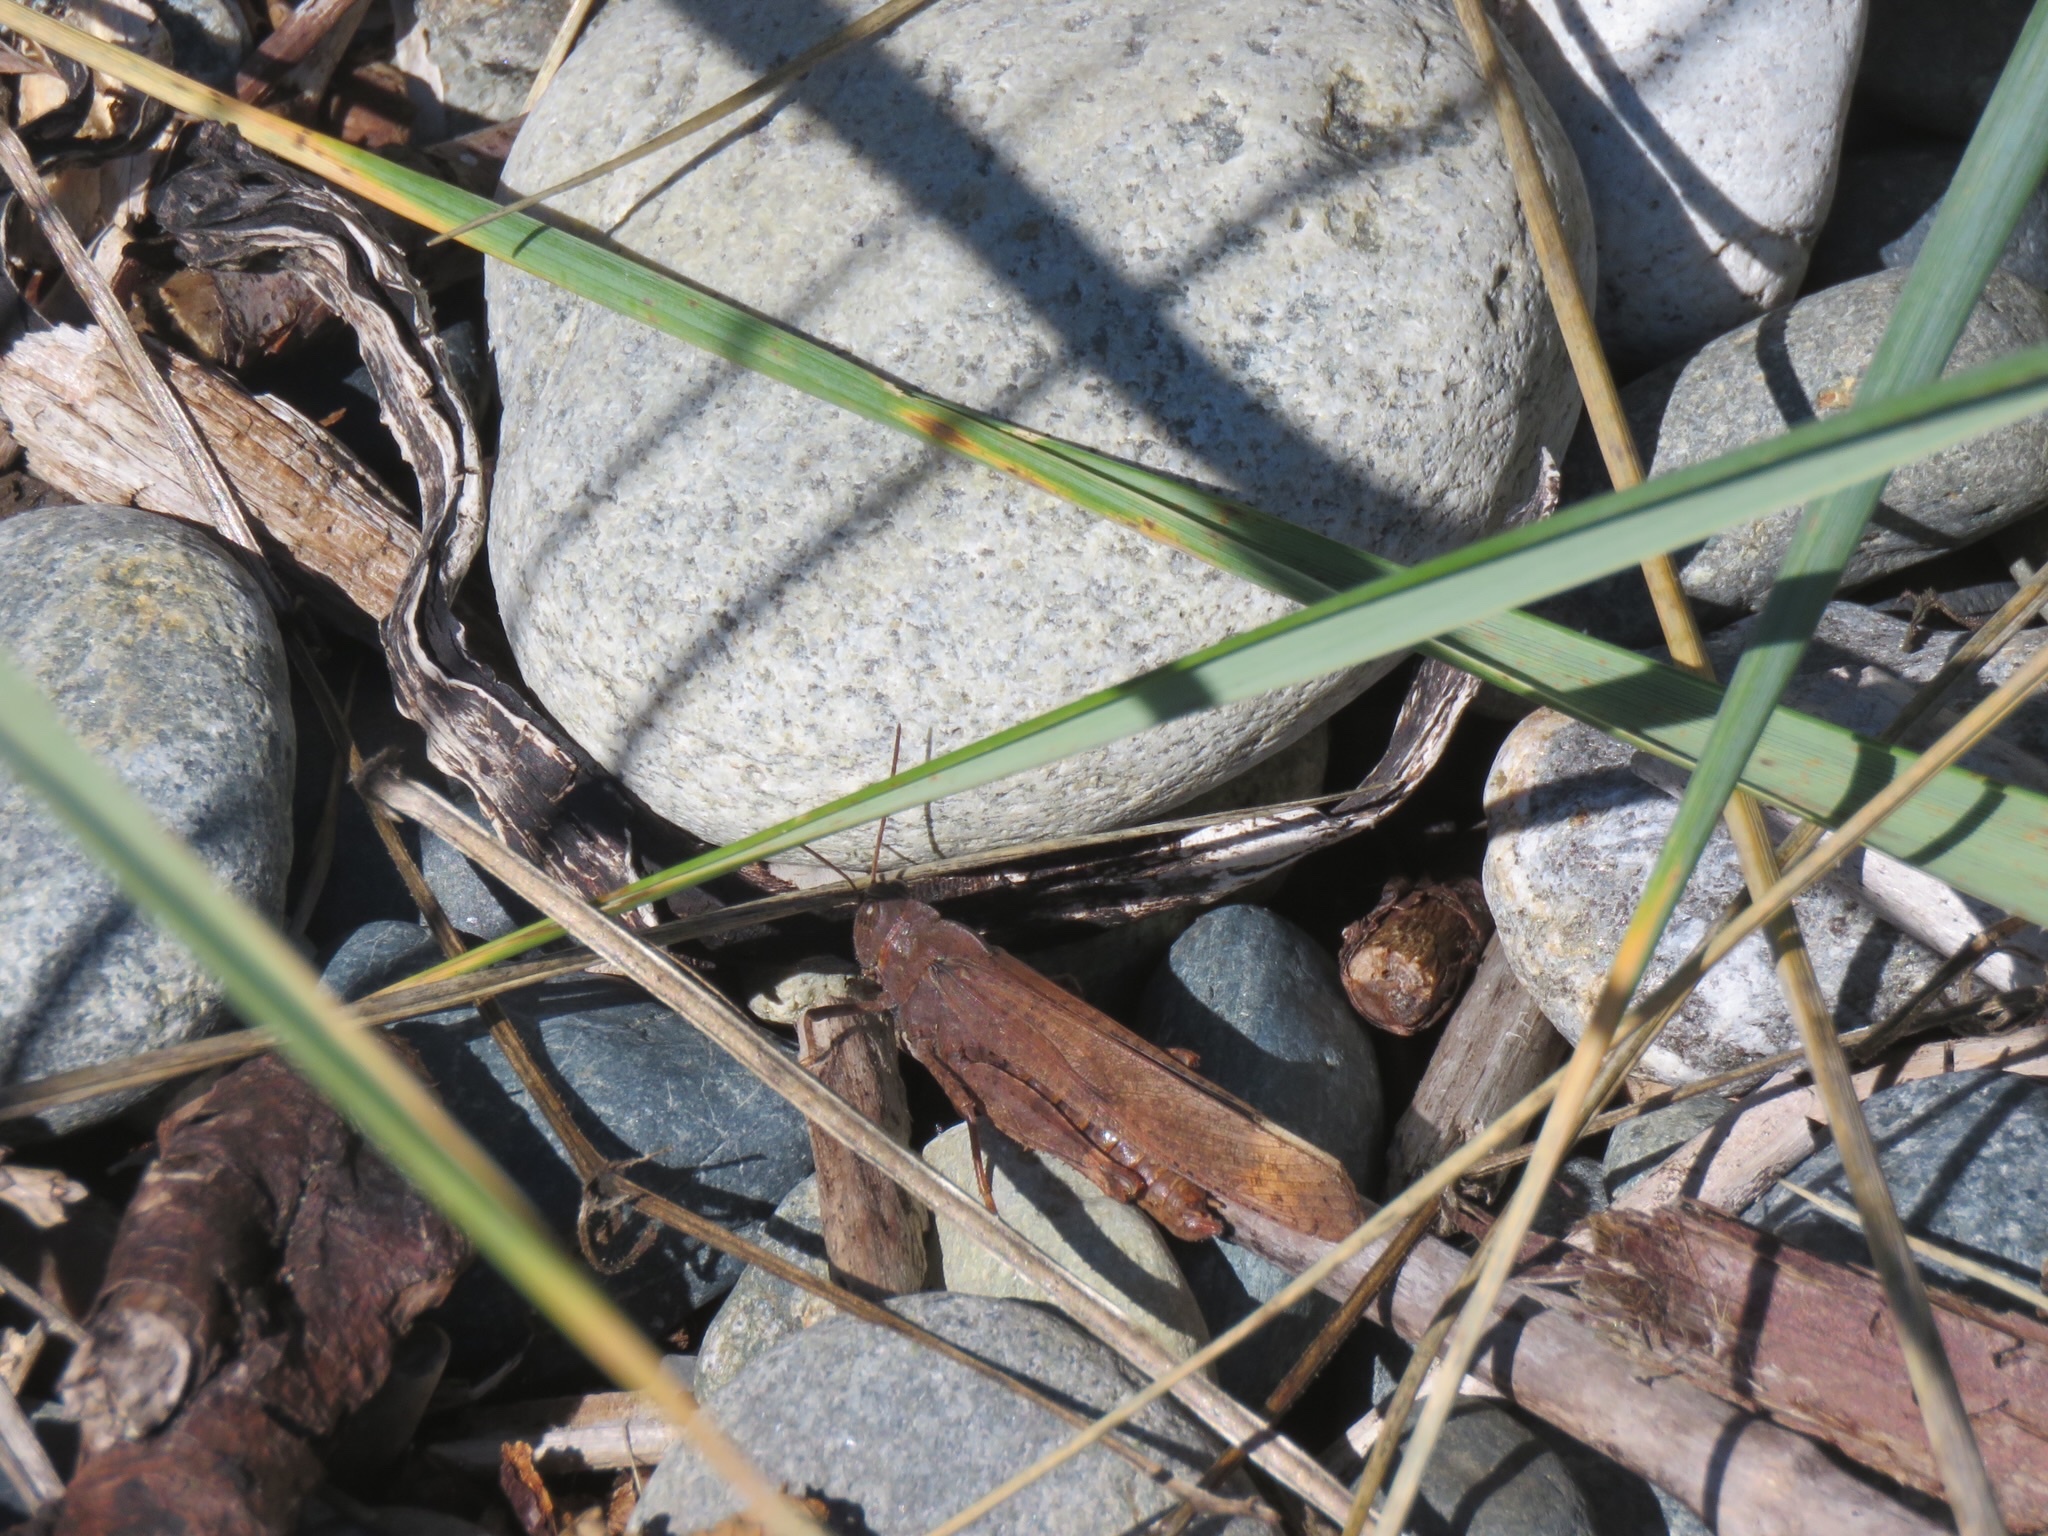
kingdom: Animalia
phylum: Arthropoda
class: Insecta
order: Orthoptera
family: Acrididae
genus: Dissosteira
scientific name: Dissosteira carolina
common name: Carolina grasshopper
